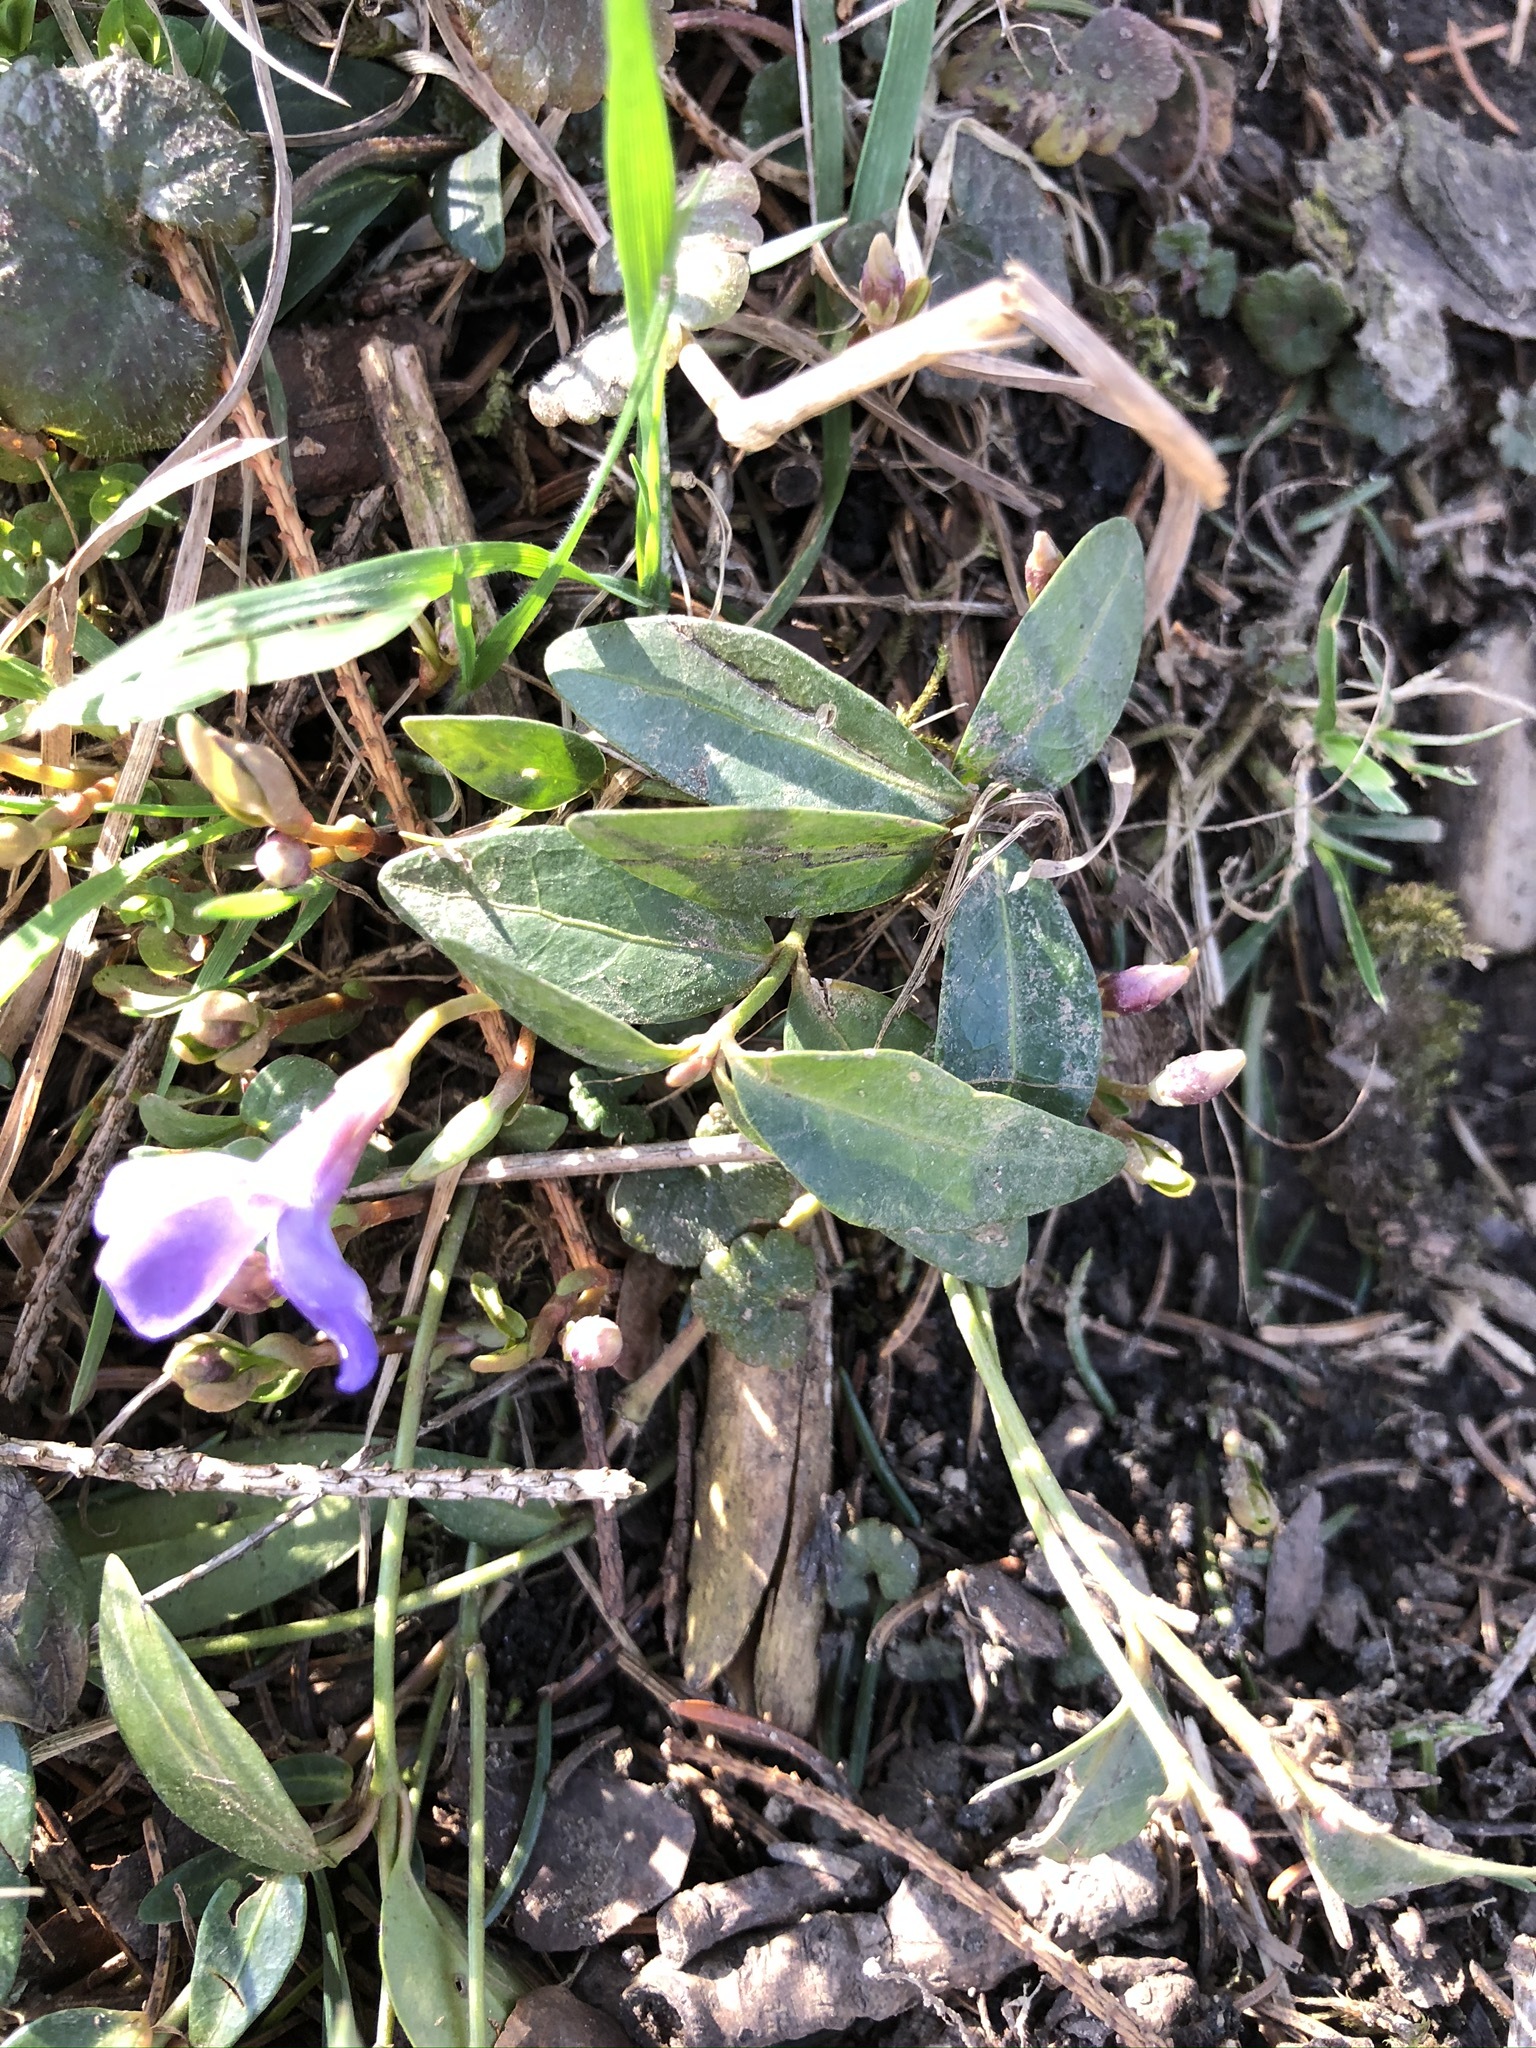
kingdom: Plantae
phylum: Tracheophyta
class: Magnoliopsida
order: Gentianales
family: Apocynaceae
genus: Vinca
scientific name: Vinca minor
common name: Lesser periwinkle
